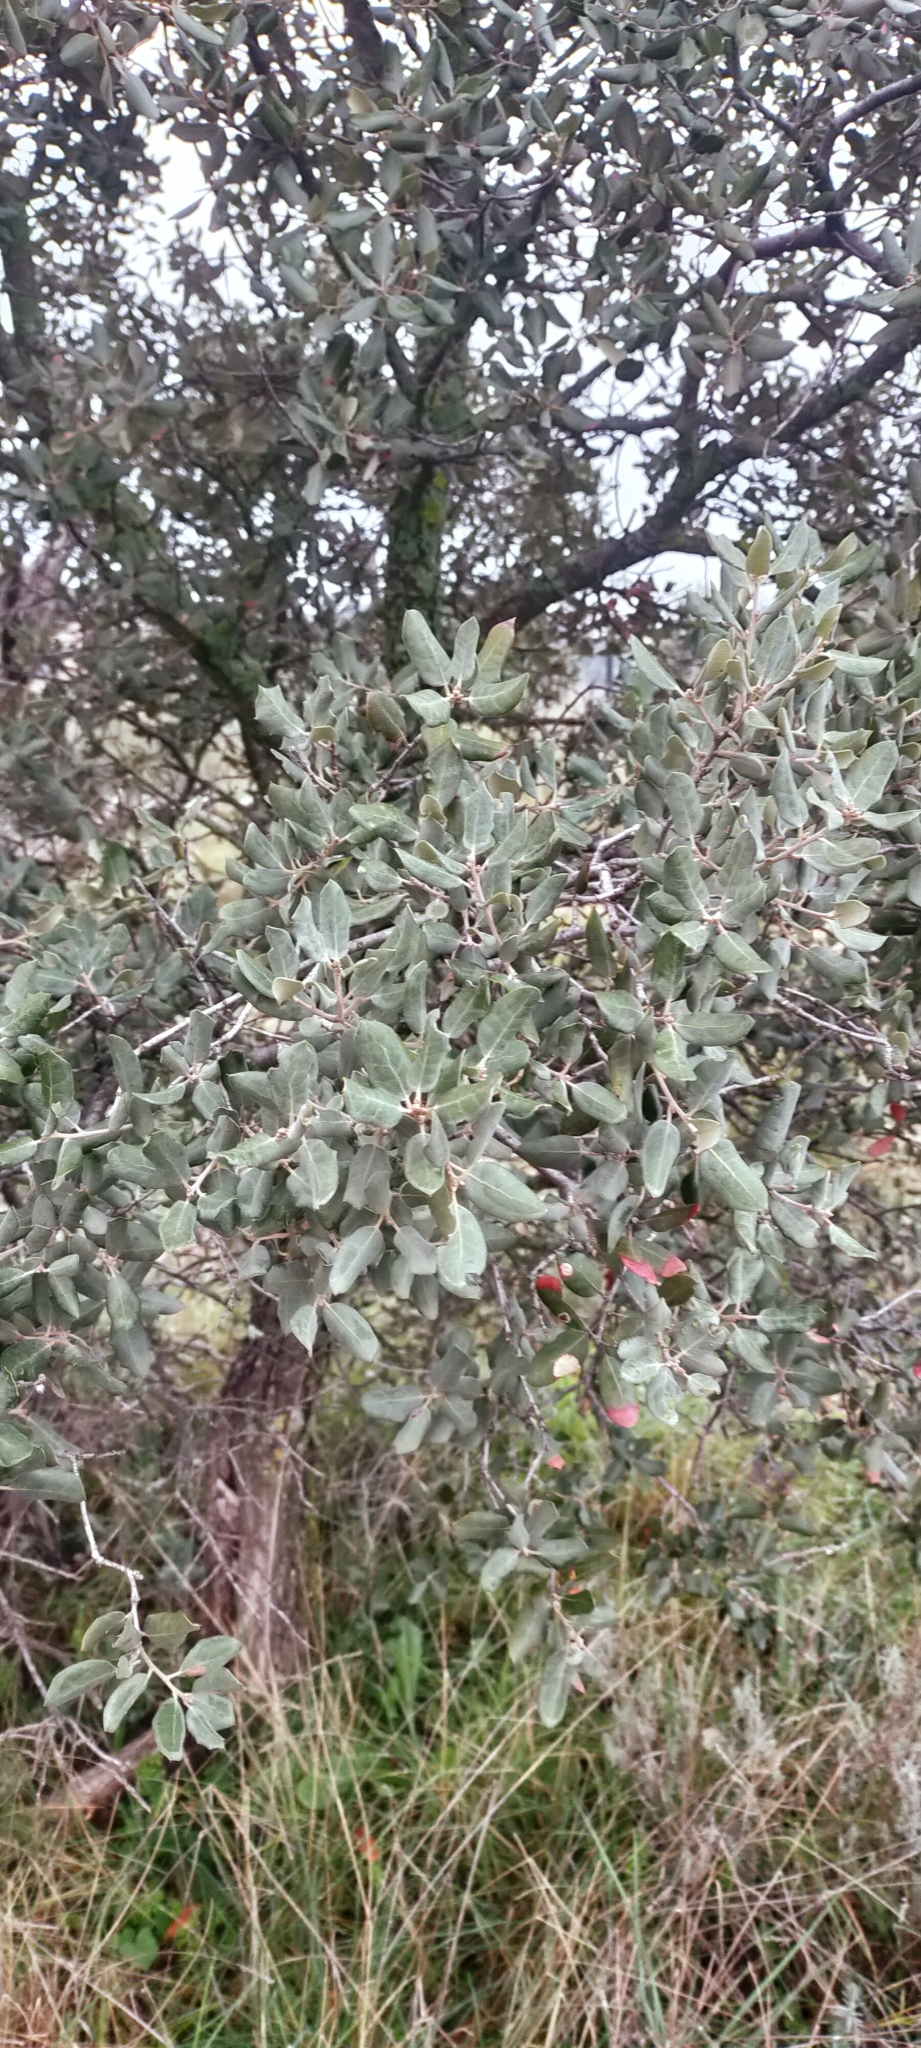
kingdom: Plantae
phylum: Tracheophyta
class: Magnoliopsida
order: Fagales
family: Fagaceae
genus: Quercus
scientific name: Quercus rotundifolia
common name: Holm oak
